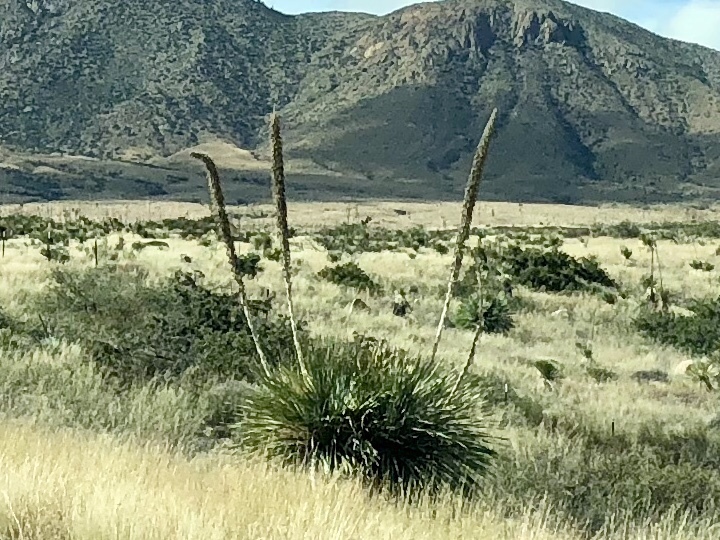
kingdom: Plantae
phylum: Tracheophyta
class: Liliopsida
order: Asparagales
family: Asparagaceae
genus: Dasylirion
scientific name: Dasylirion wheeleri
